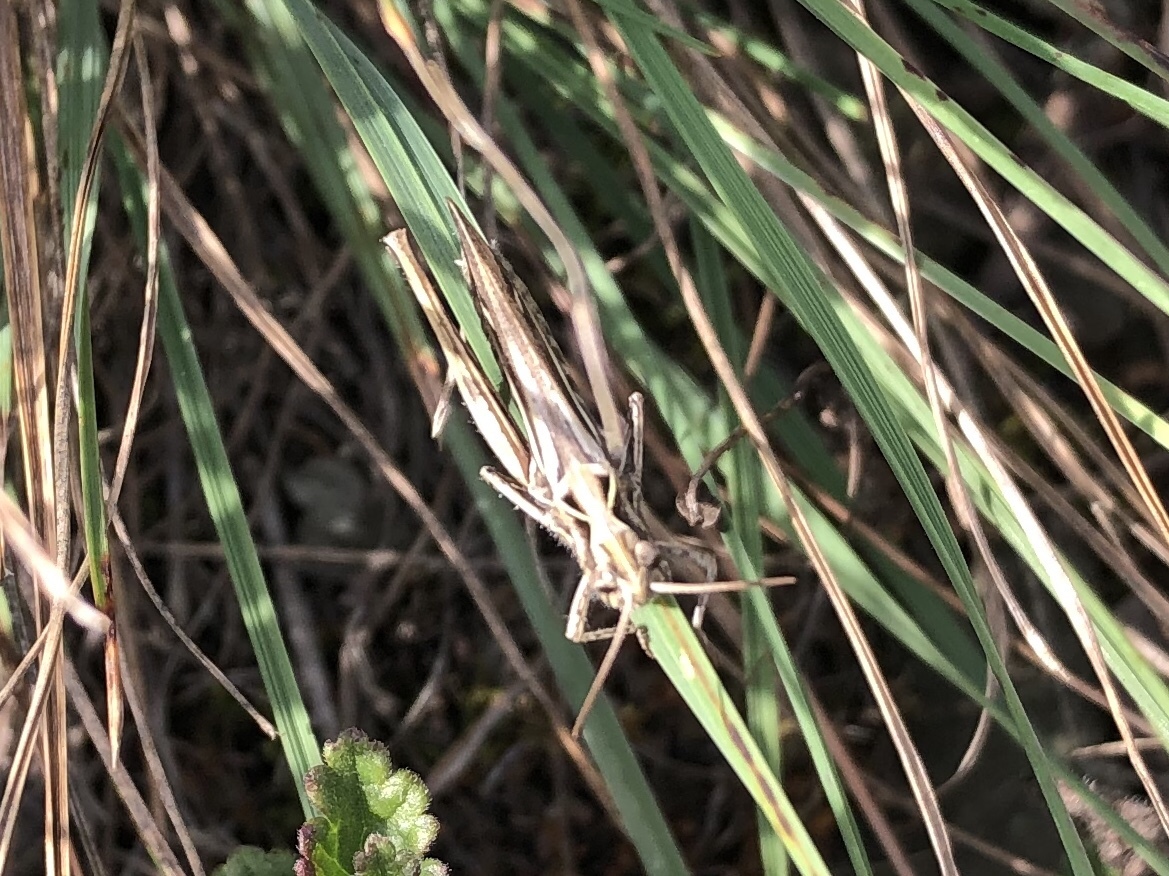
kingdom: Animalia
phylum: Arthropoda
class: Insecta
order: Orthoptera
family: Acrididae
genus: Chorthippus
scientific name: Chorthippus brunneus
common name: Field grasshopper
